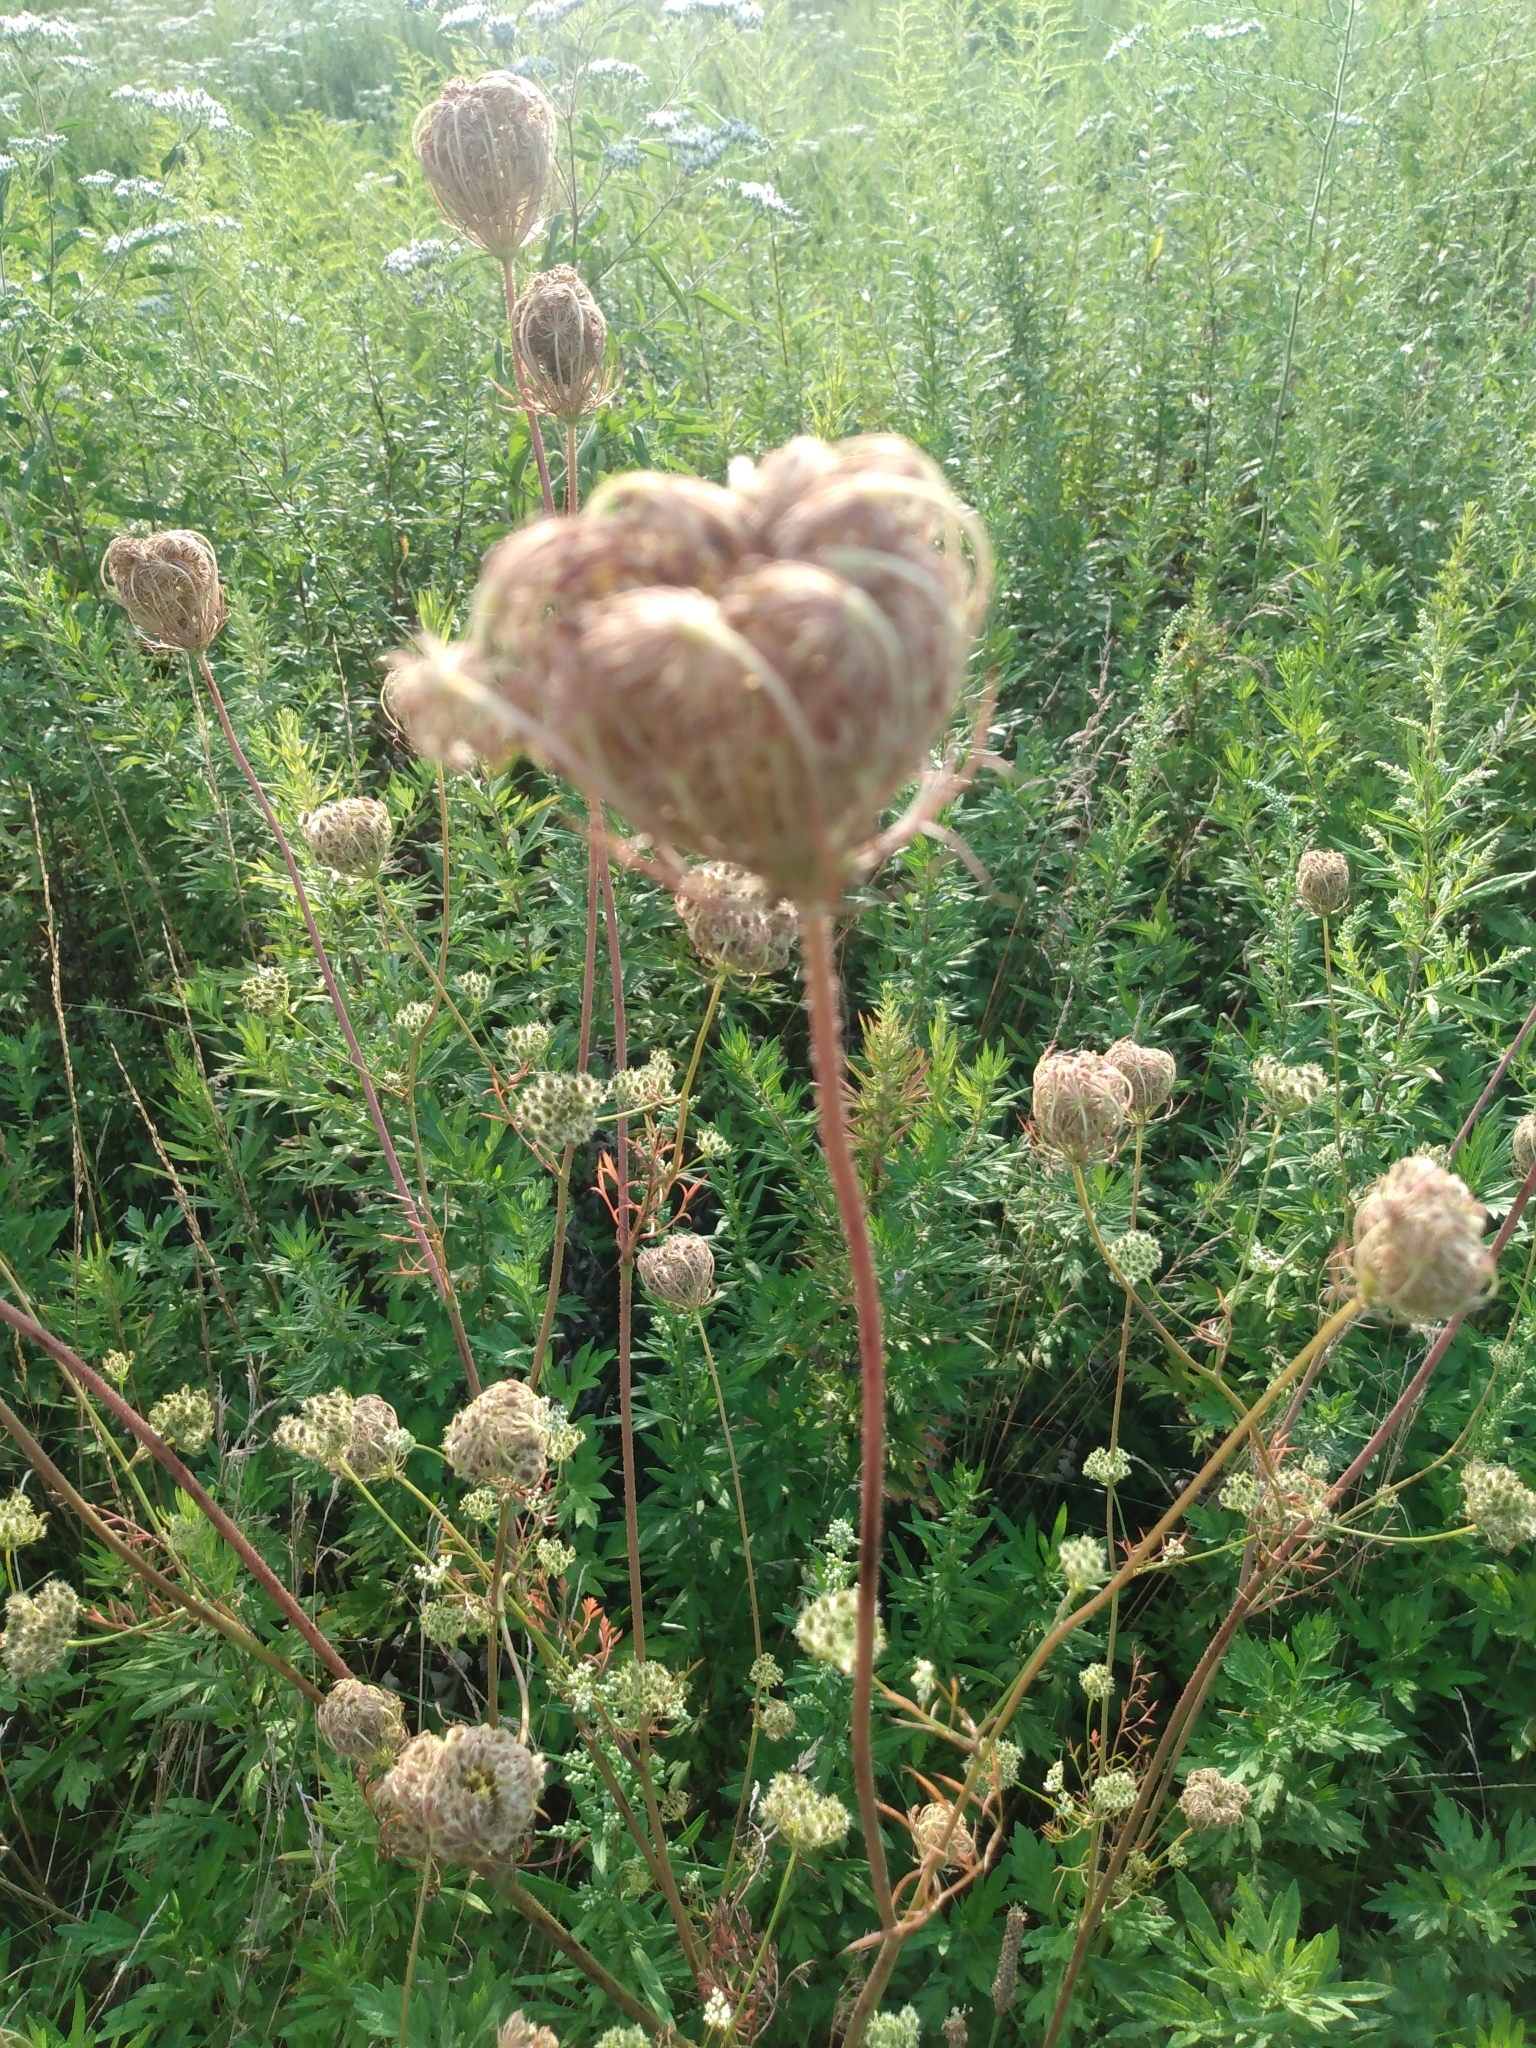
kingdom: Plantae
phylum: Tracheophyta
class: Magnoliopsida
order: Apiales
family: Apiaceae
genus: Daucus
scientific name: Daucus carota
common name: Wild carrot
